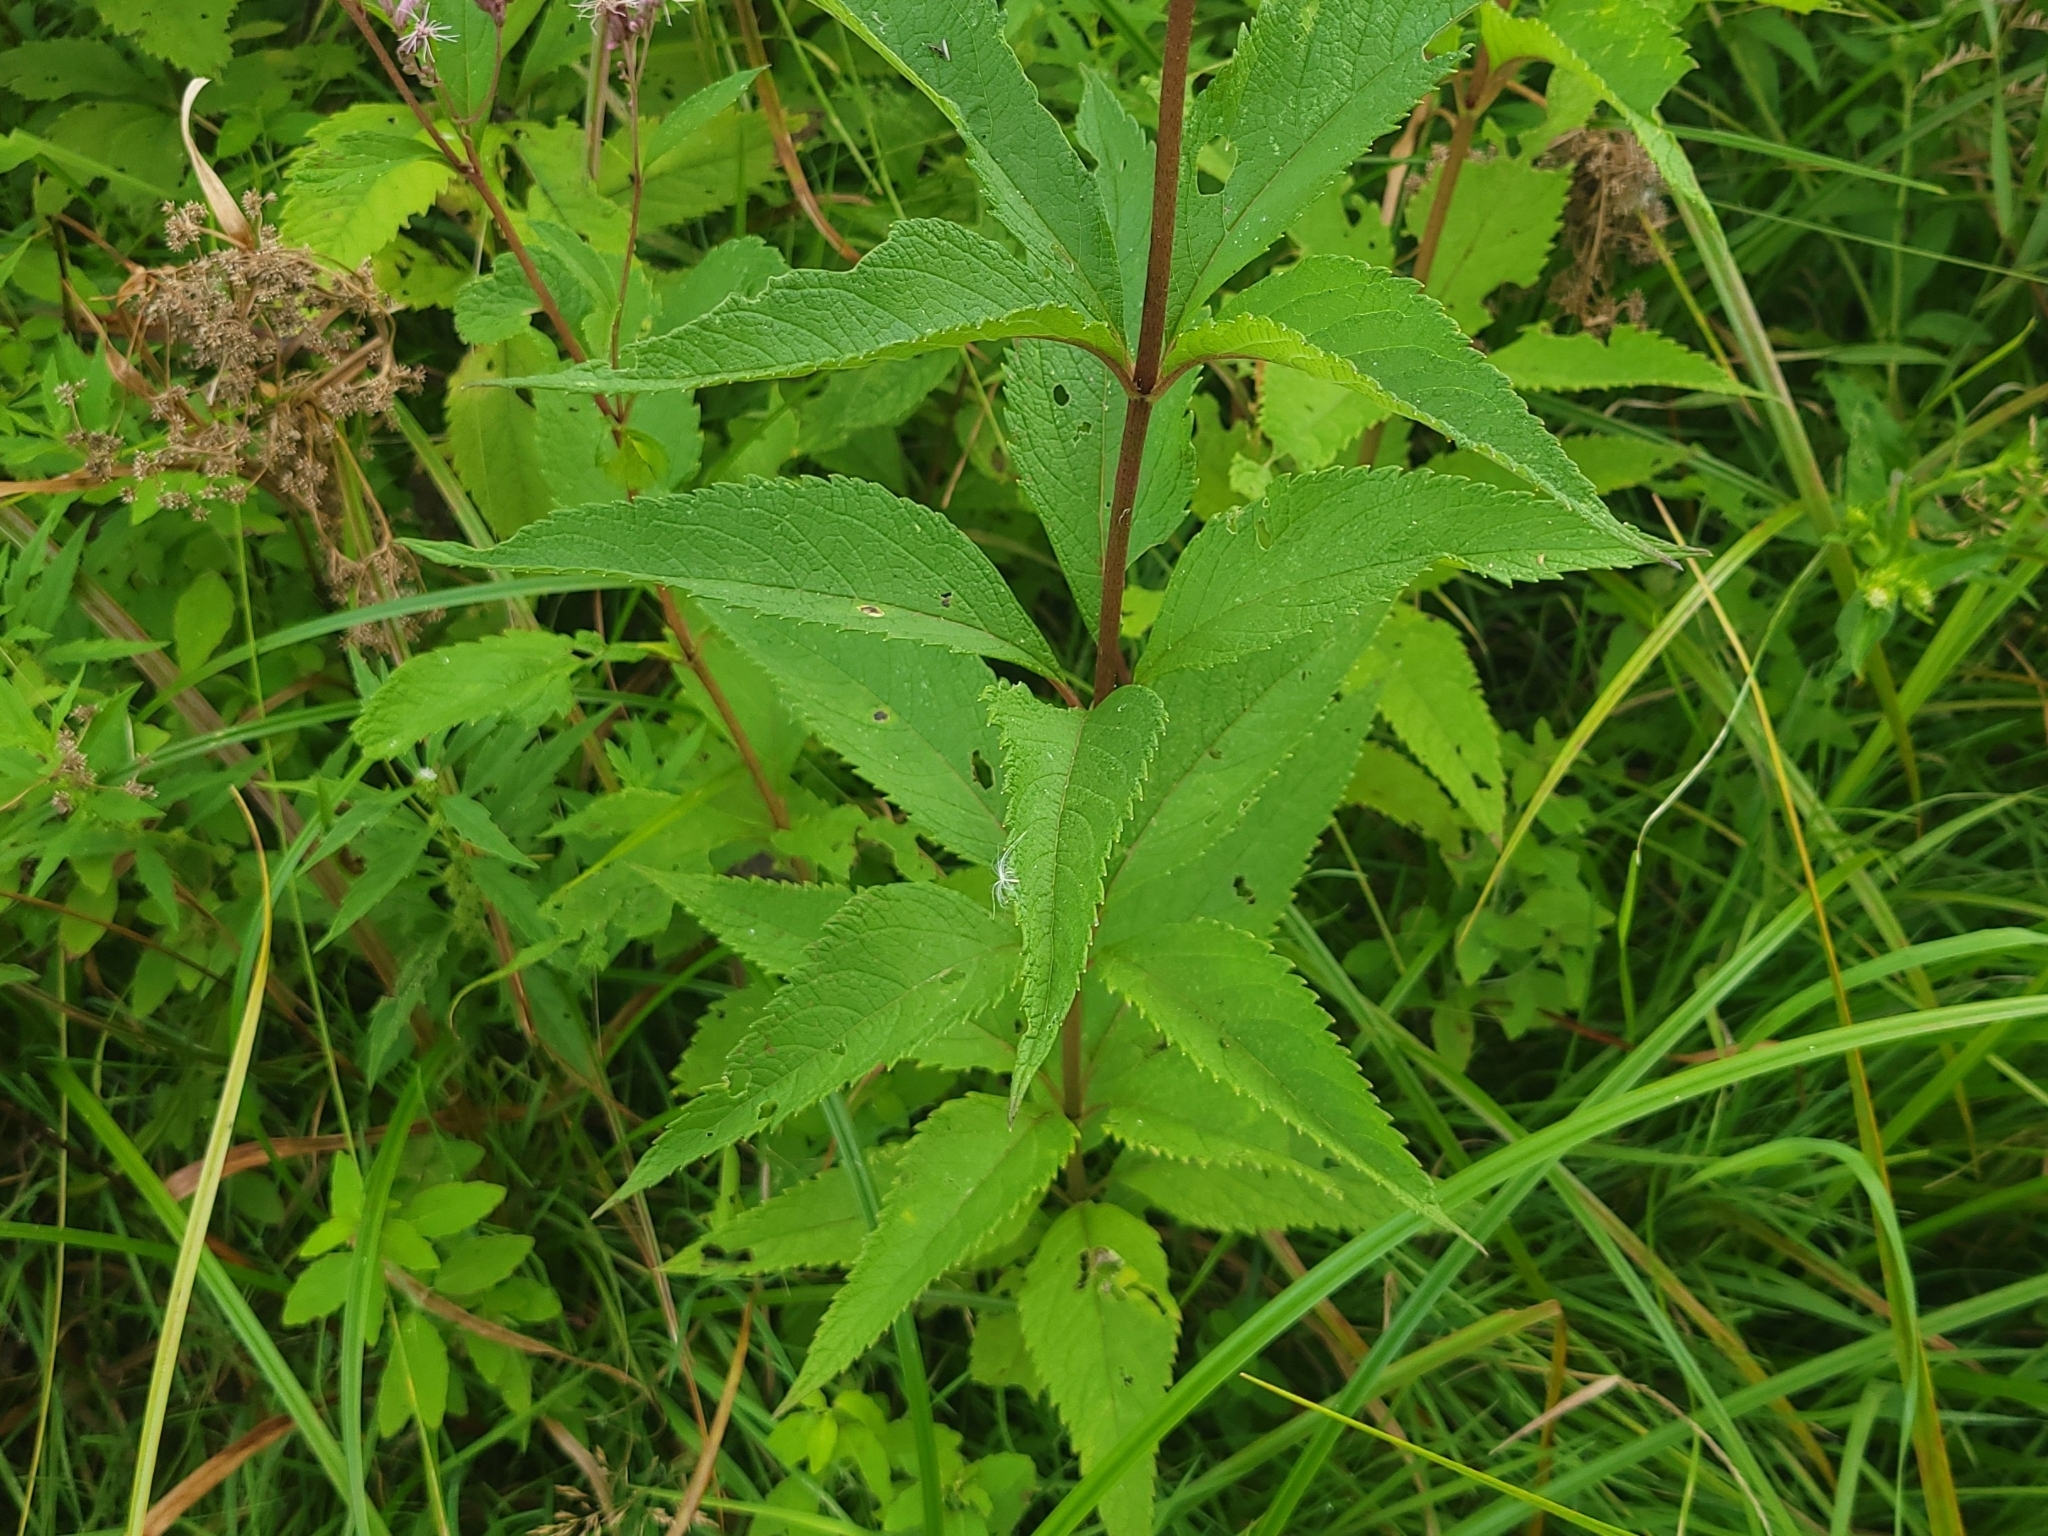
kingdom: Plantae
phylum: Tracheophyta
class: Magnoliopsida
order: Asterales
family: Asteraceae
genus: Eutrochium
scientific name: Eutrochium maculatum
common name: Spotted joe pye weed
